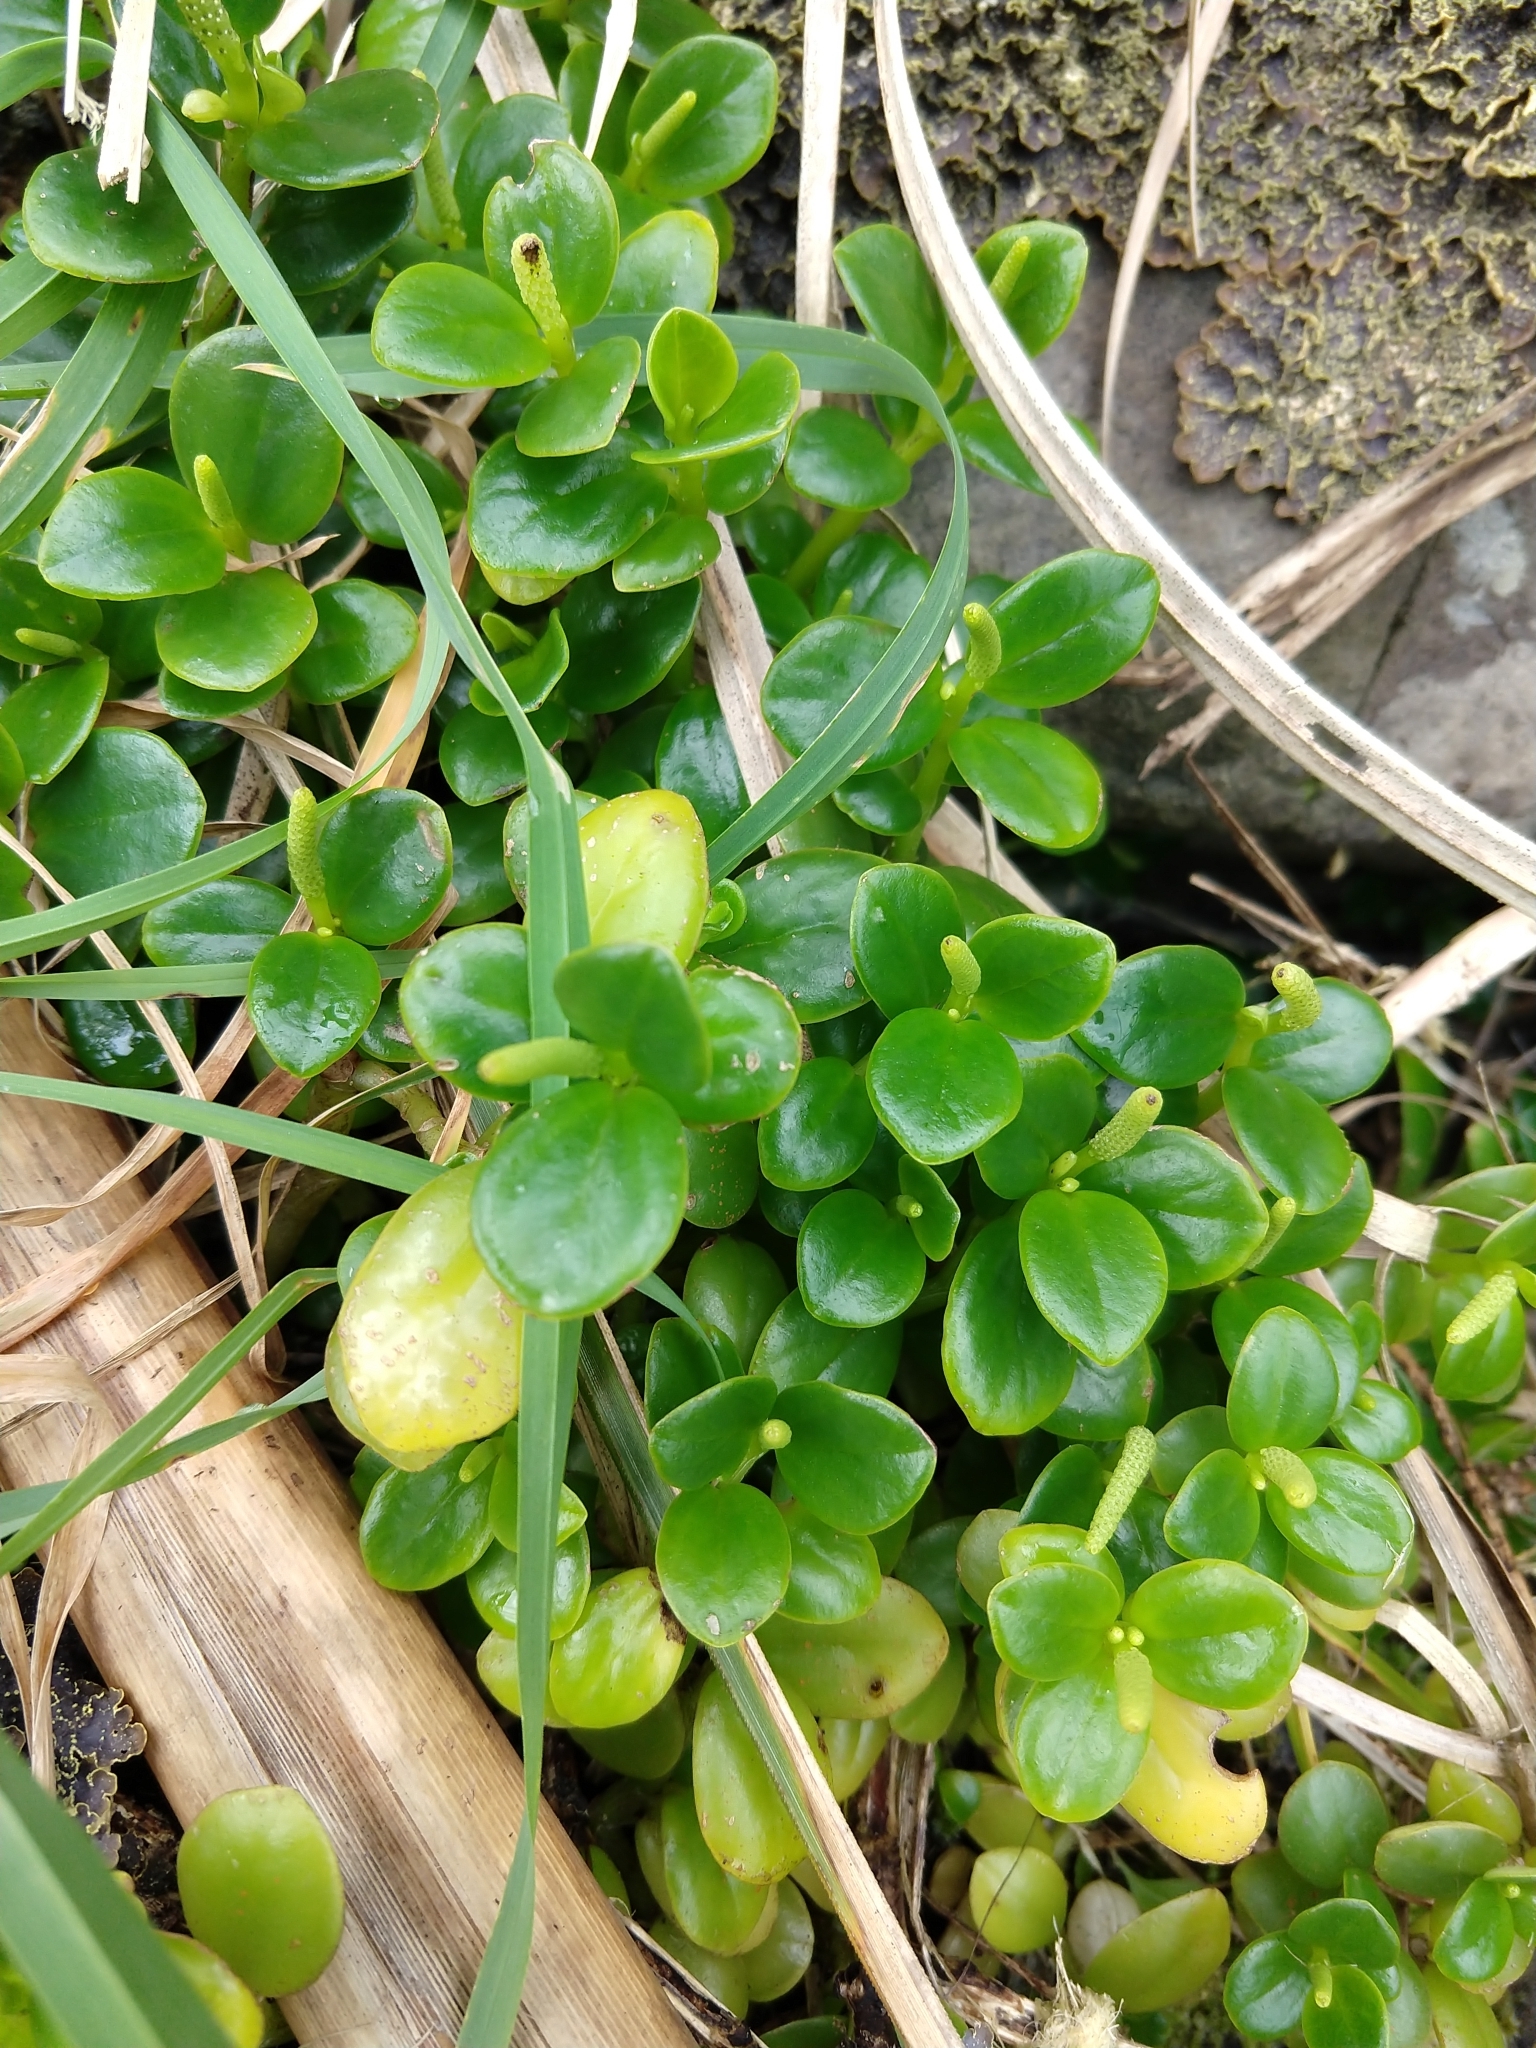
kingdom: Plantae
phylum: Tracheophyta
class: Magnoliopsida
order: Piperales
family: Piperaceae
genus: Peperomia
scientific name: Peperomia urvilleana
